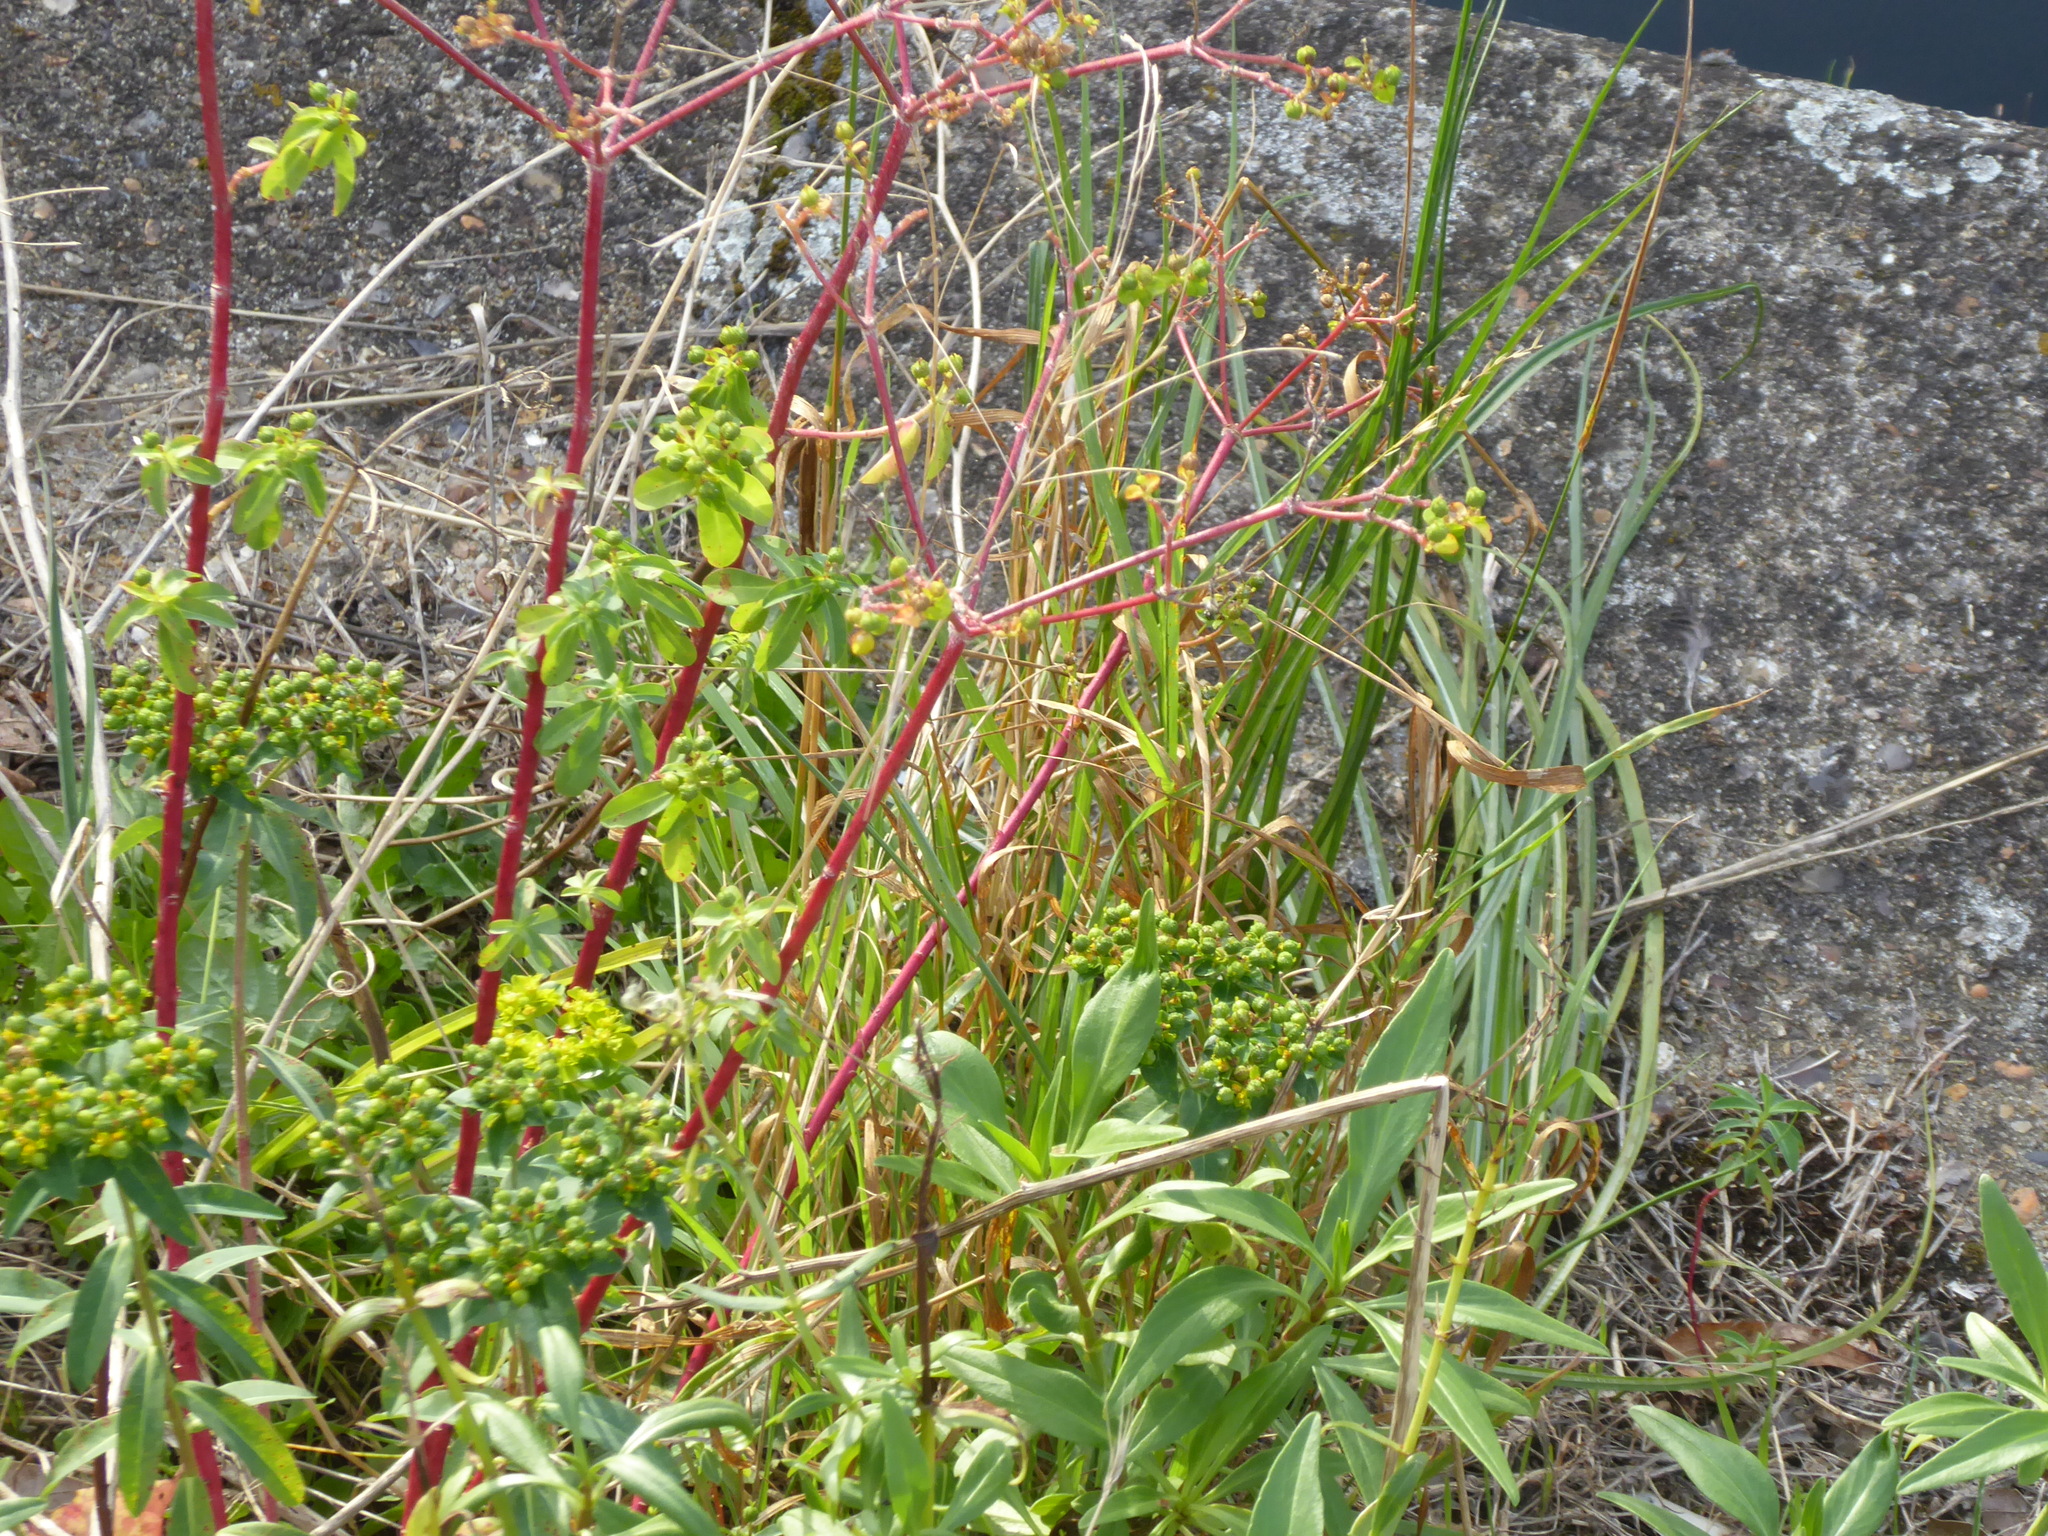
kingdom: Plantae
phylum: Tracheophyta
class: Magnoliopsida
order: Malpighiales
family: Euphorbiaceae
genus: Euphorbia
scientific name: Euphorbia oblongata
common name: Balkan spurge
